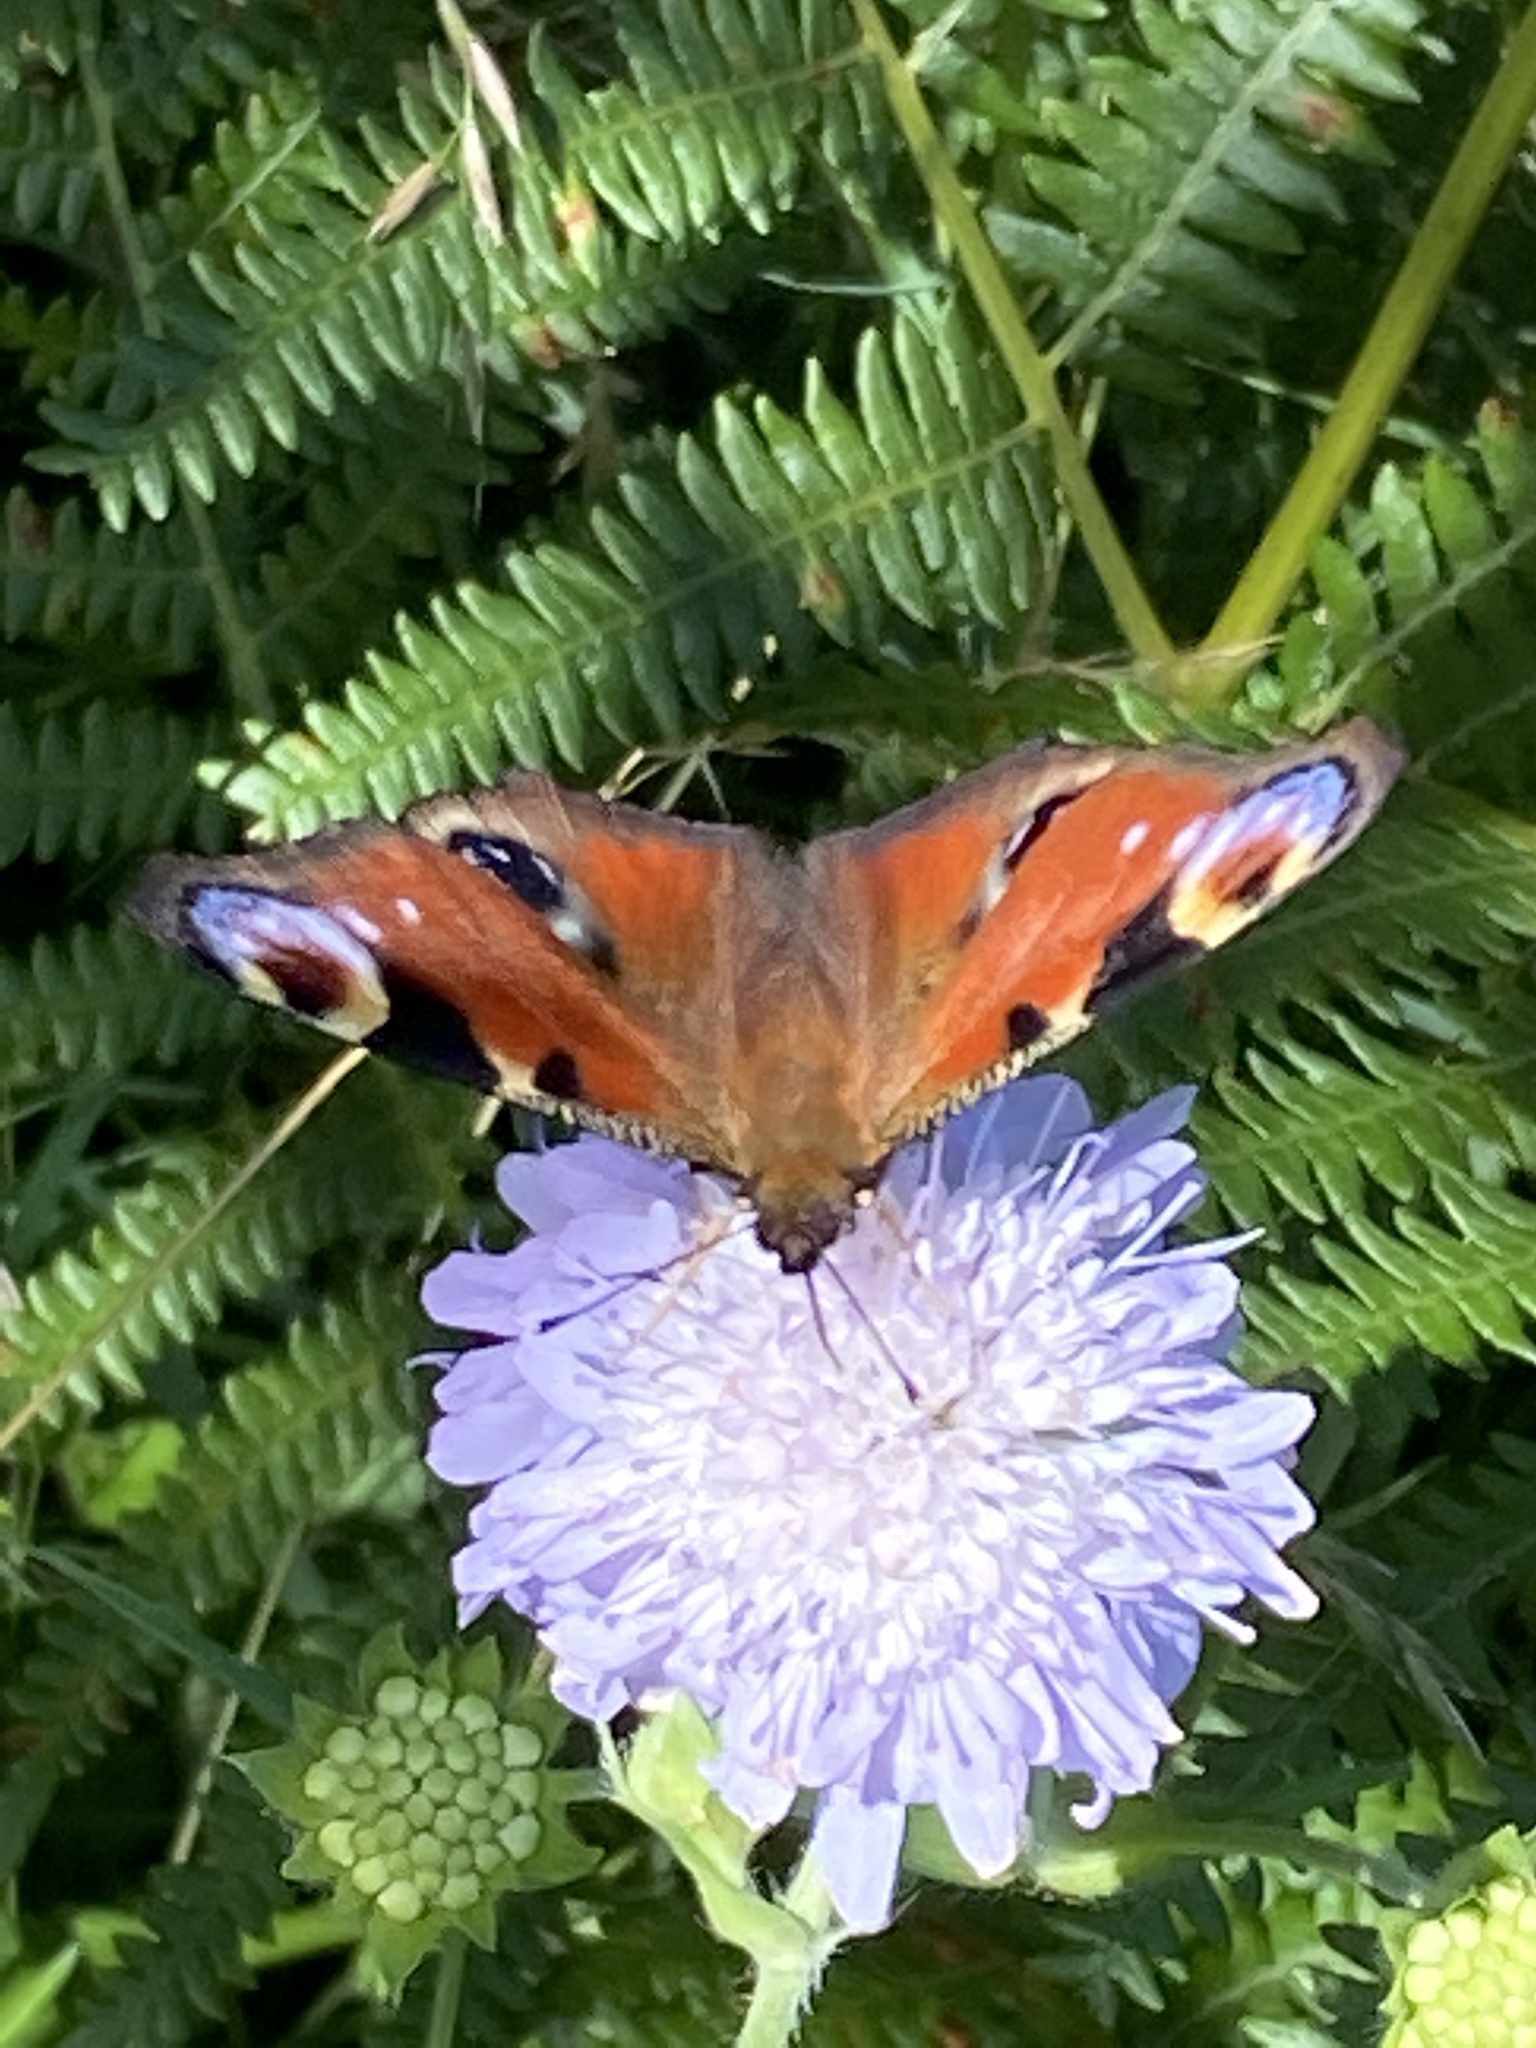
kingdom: Animalia
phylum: Arthropoda
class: Insecta
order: Lepidoptera
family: Nymphalidae
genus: Aglais
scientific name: Aglais io
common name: Peacock
